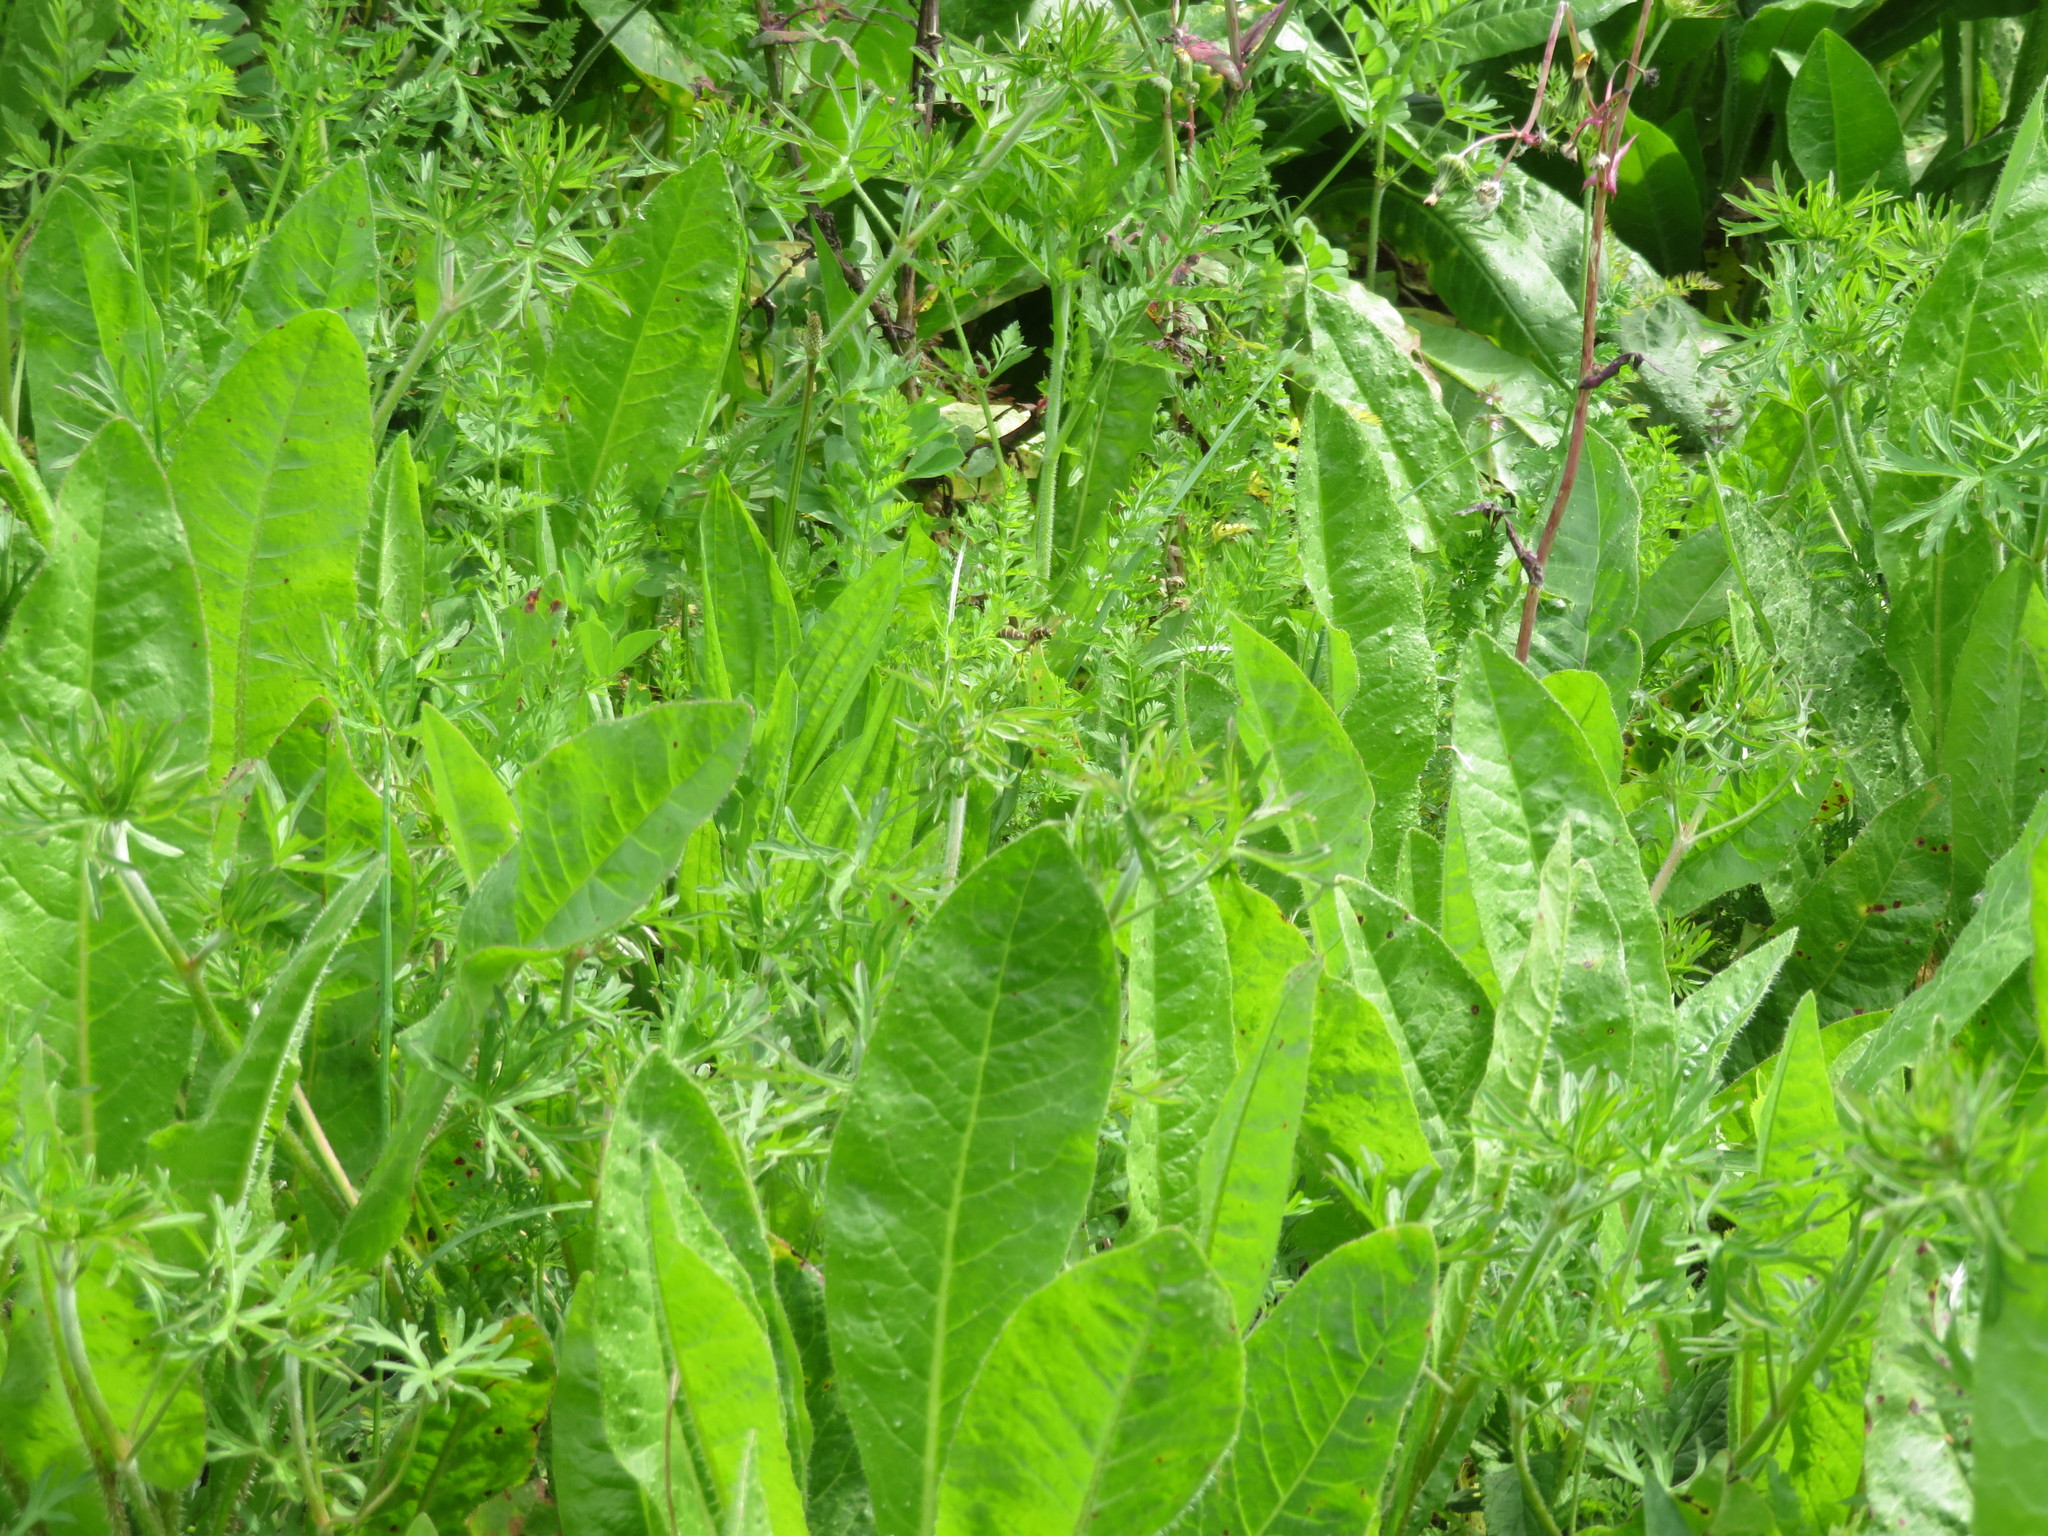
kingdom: Plantae
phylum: Tracheophyta
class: Magnoliopsida
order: Geraniales
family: Geraniaceae
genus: Geranium
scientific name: Geranium dissectum
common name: Cut-leaved crane's-bill
